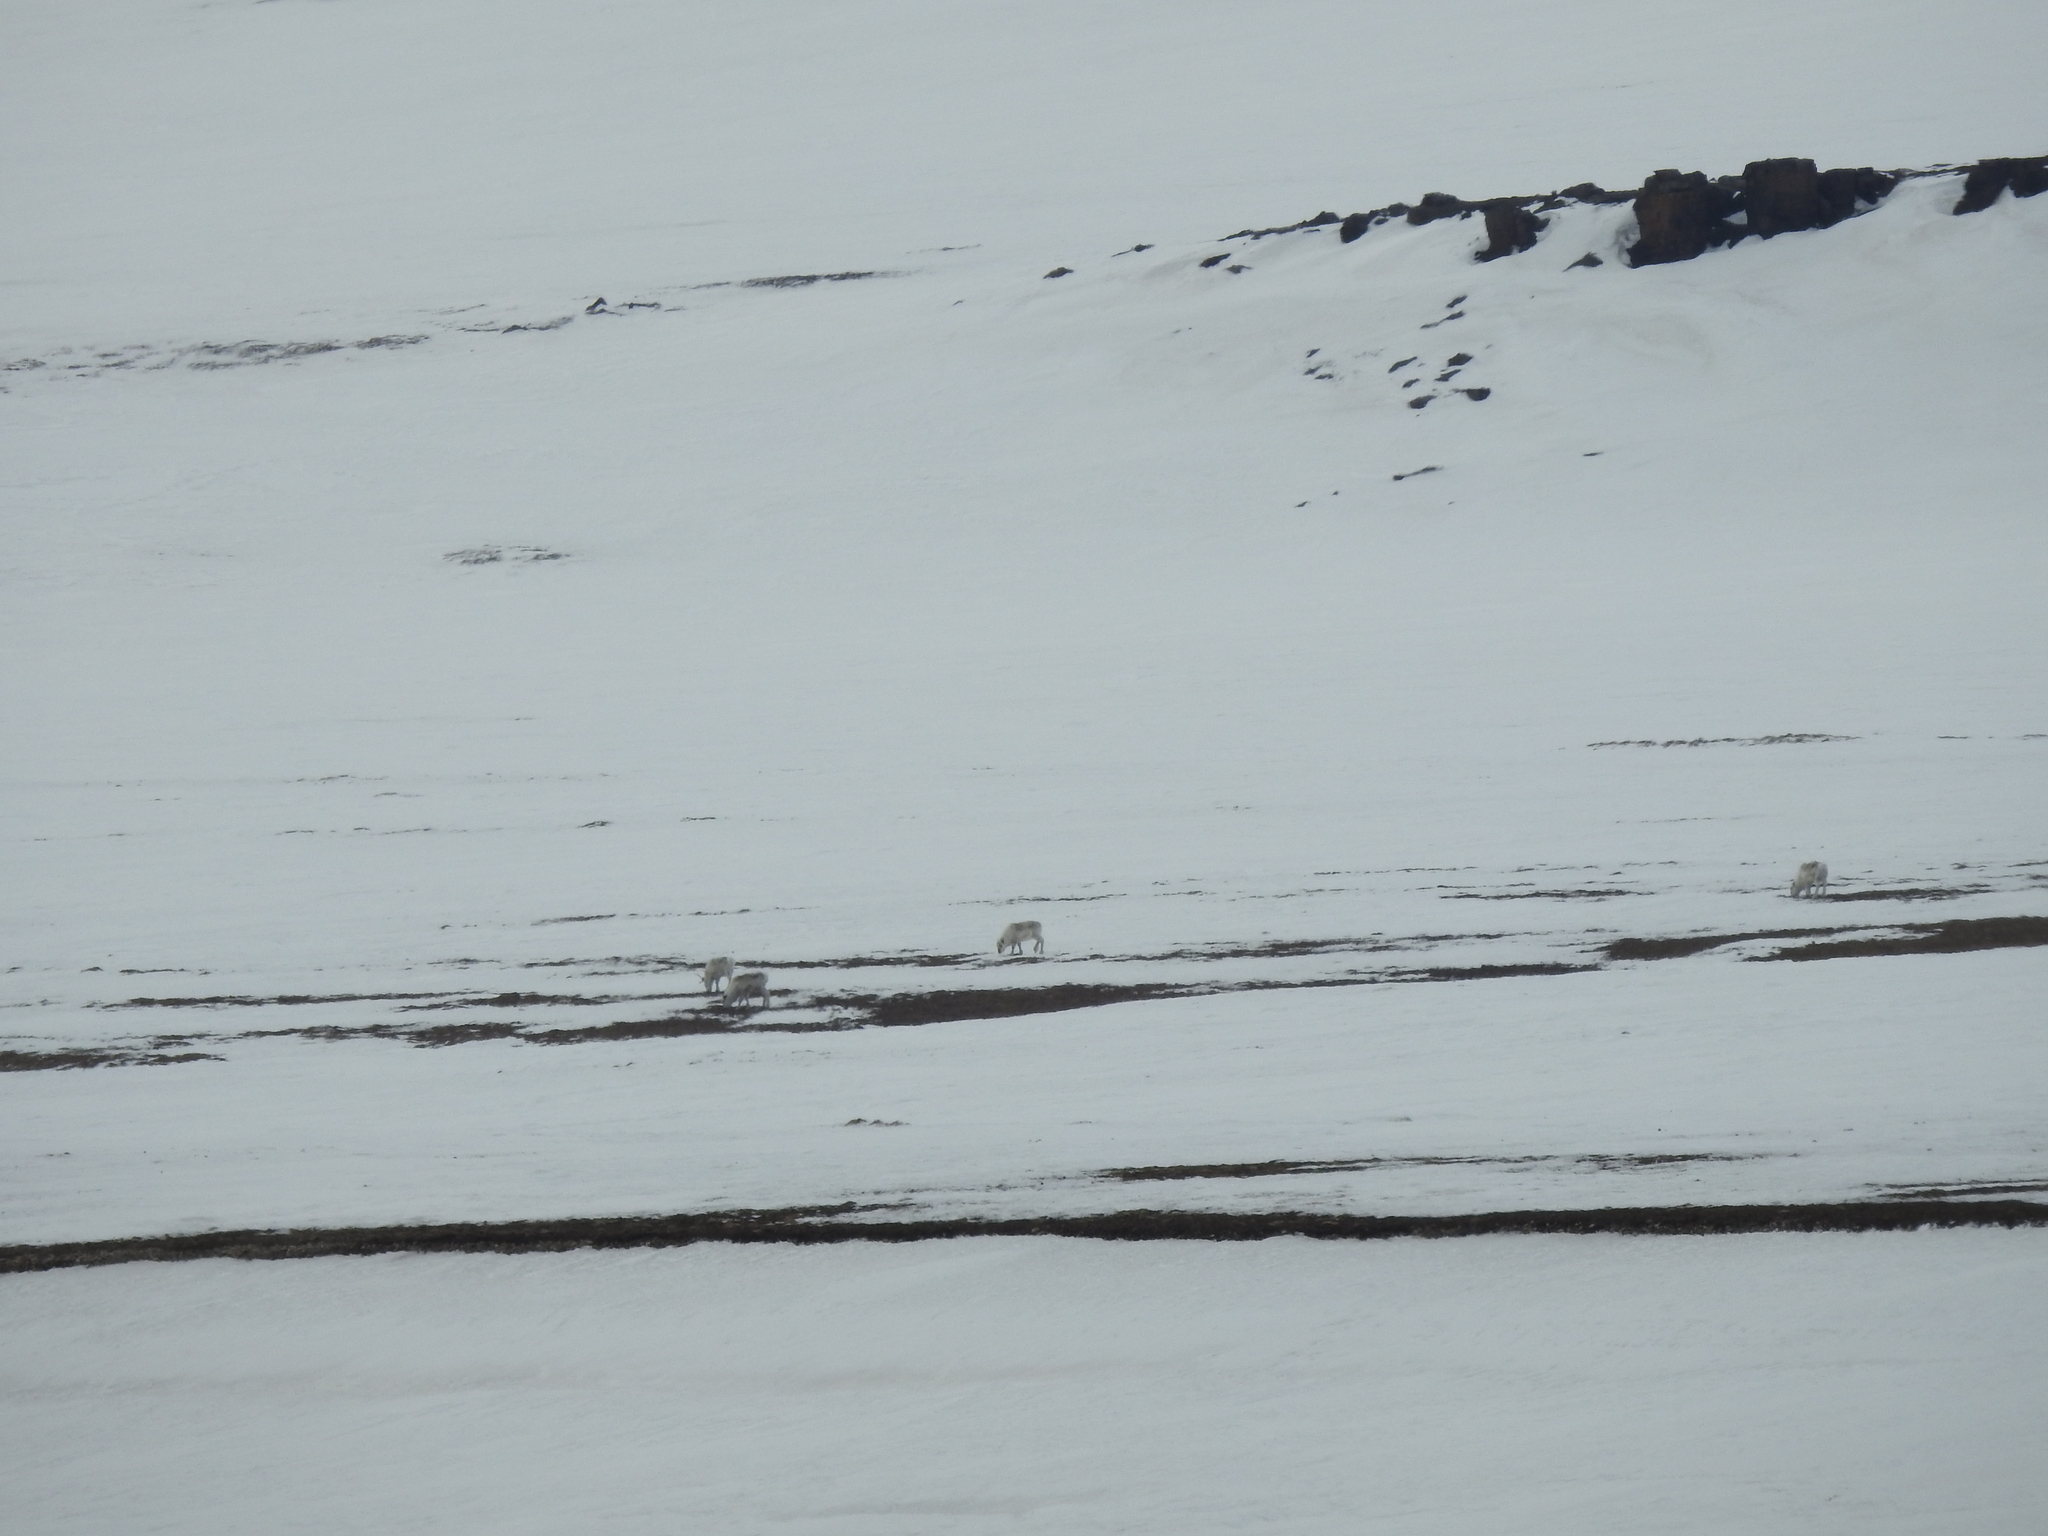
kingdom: Animalia
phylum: Chordata
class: Mammalia
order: Artiodactyla
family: Cervidae
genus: Rangifer
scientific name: Rangifer tarandus
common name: Reindeer
